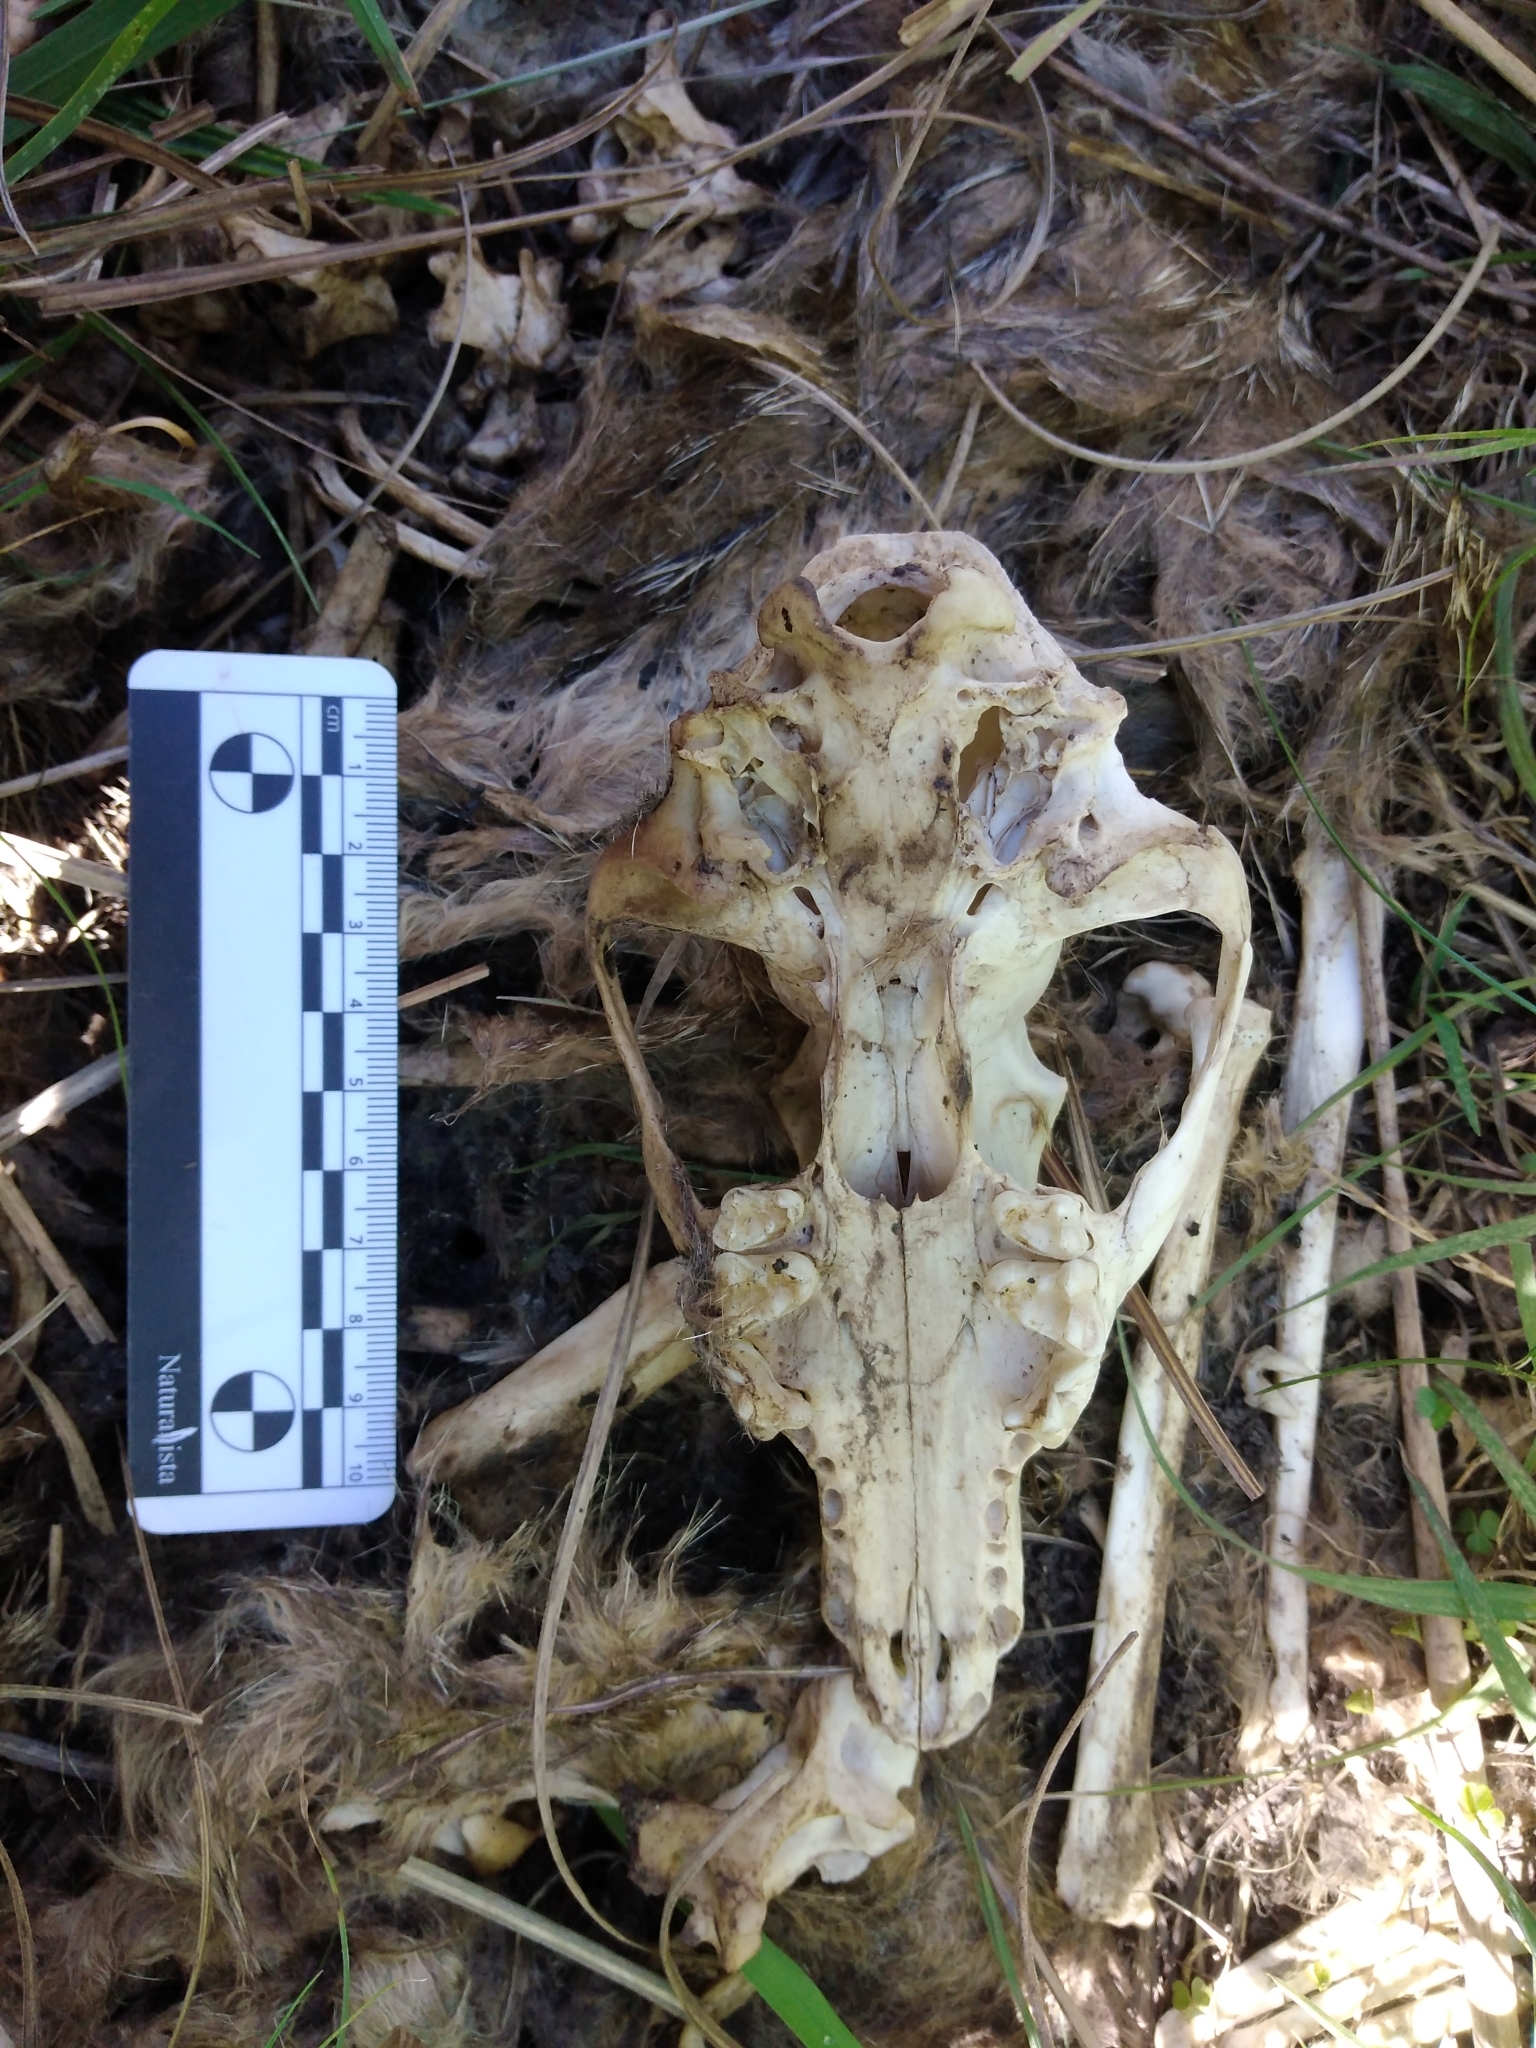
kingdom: Animalia
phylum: Chordata
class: Mammalia
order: Carnivora
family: Canidae
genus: Lycalopex
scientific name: Lycalopex gymnocercus
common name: Pampas fox
